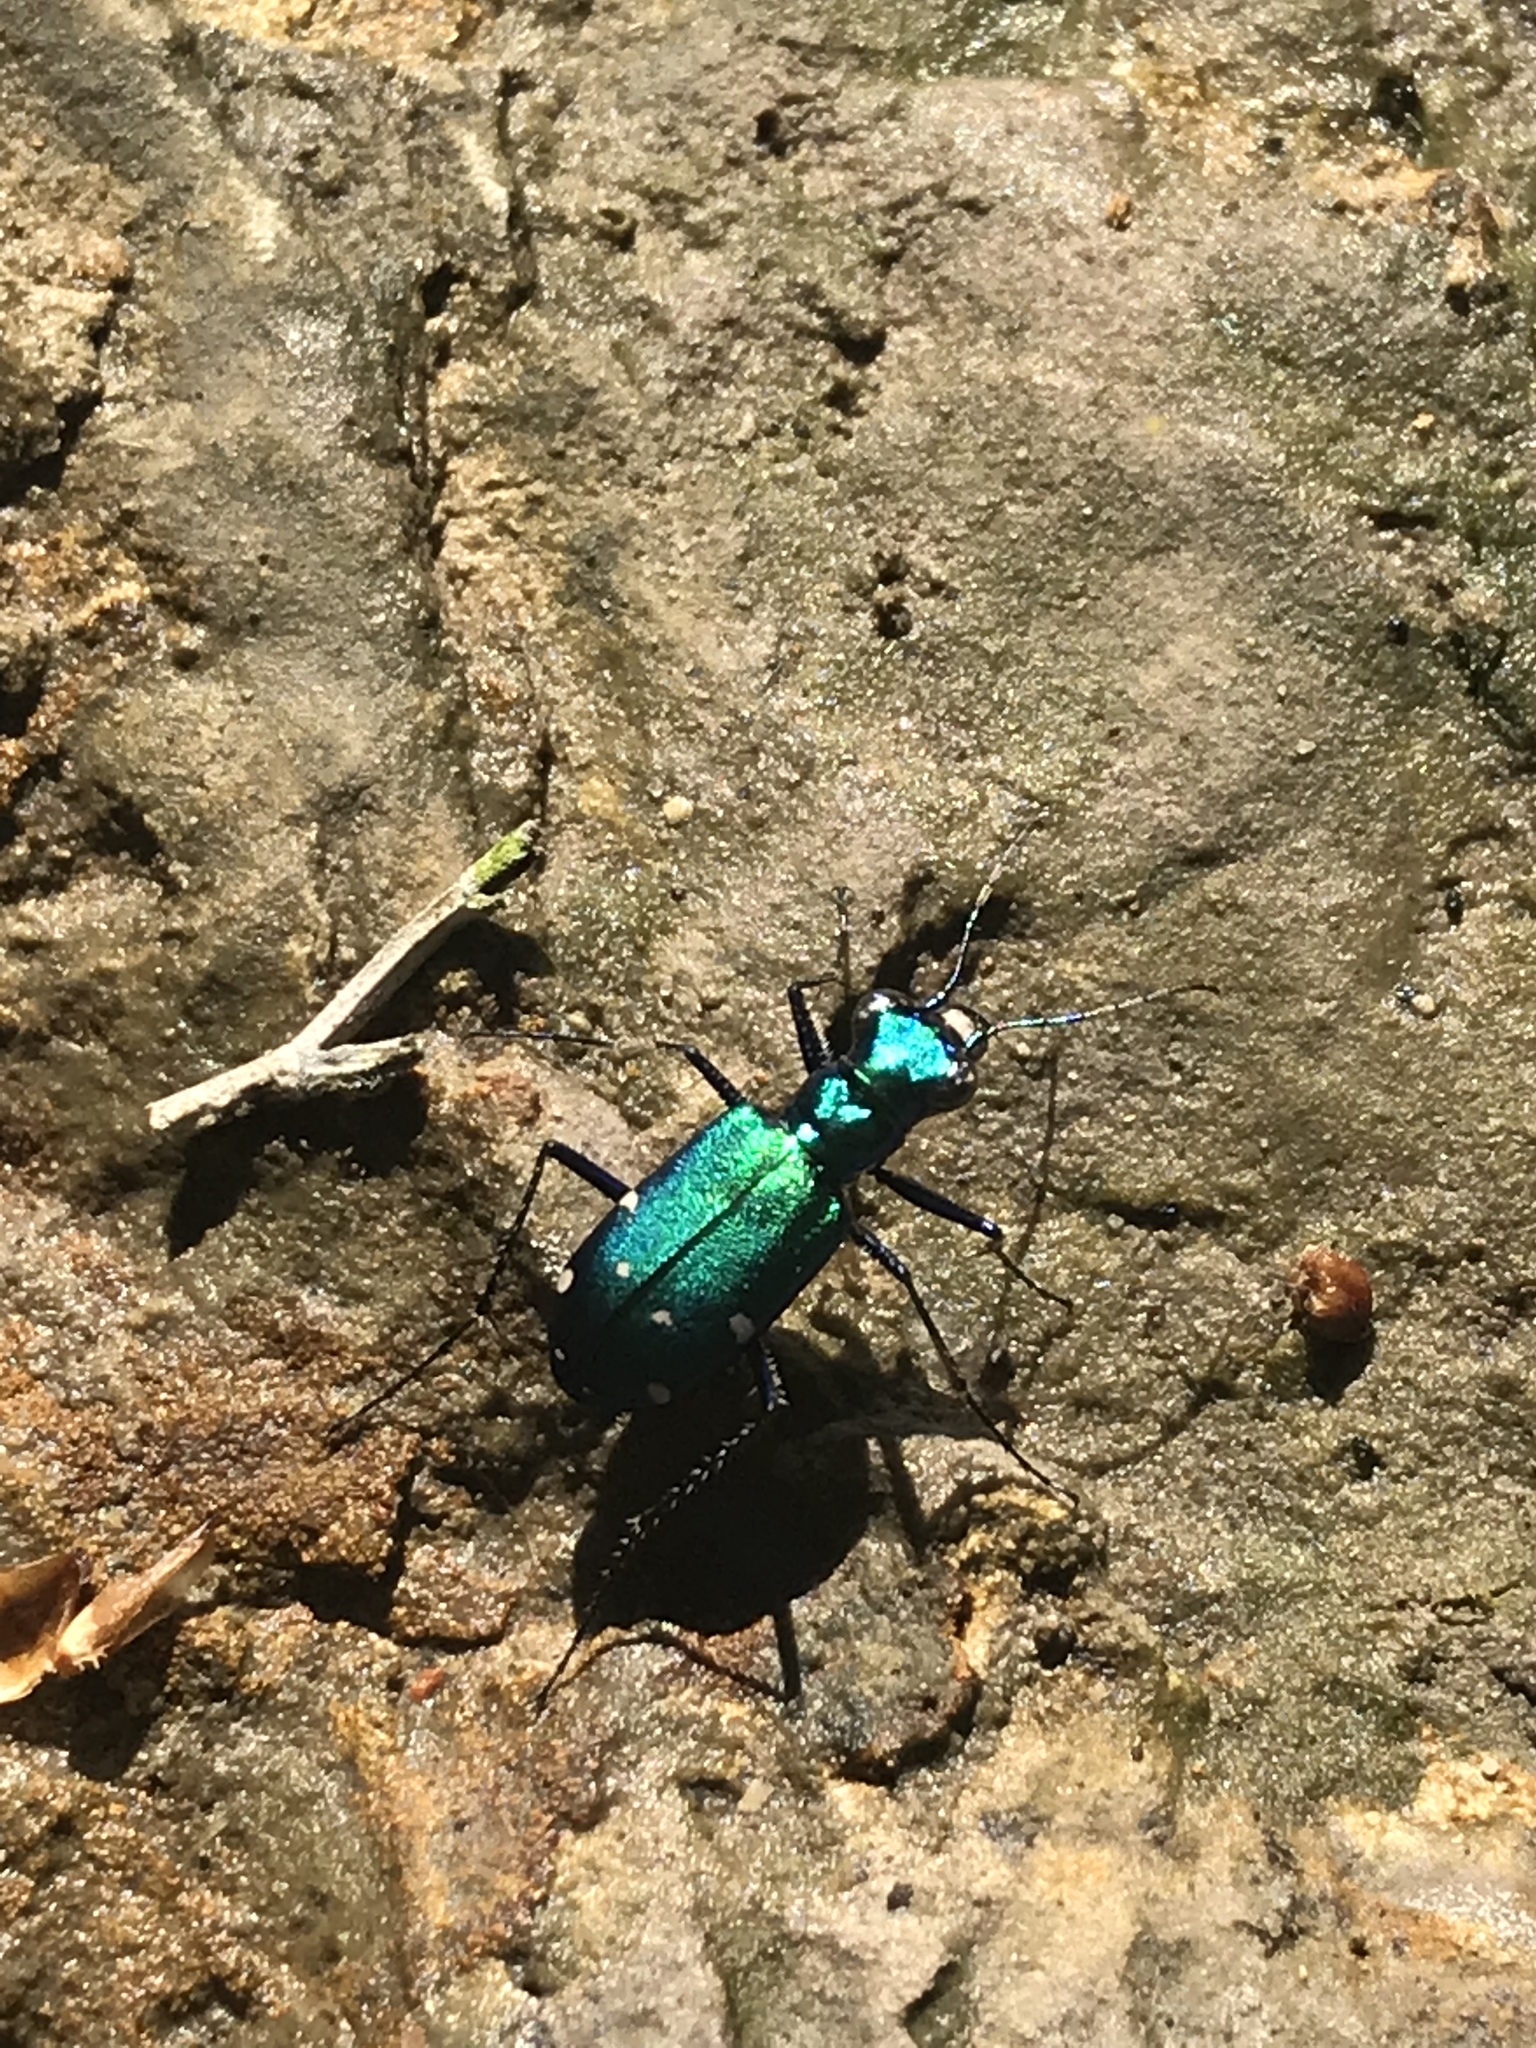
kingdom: Animalia
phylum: Arthropoda
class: Insecta
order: Coleoptera
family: Carabidae
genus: Cicindela
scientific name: Cicindela sexguttata
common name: Six-spotted tiger beetle
